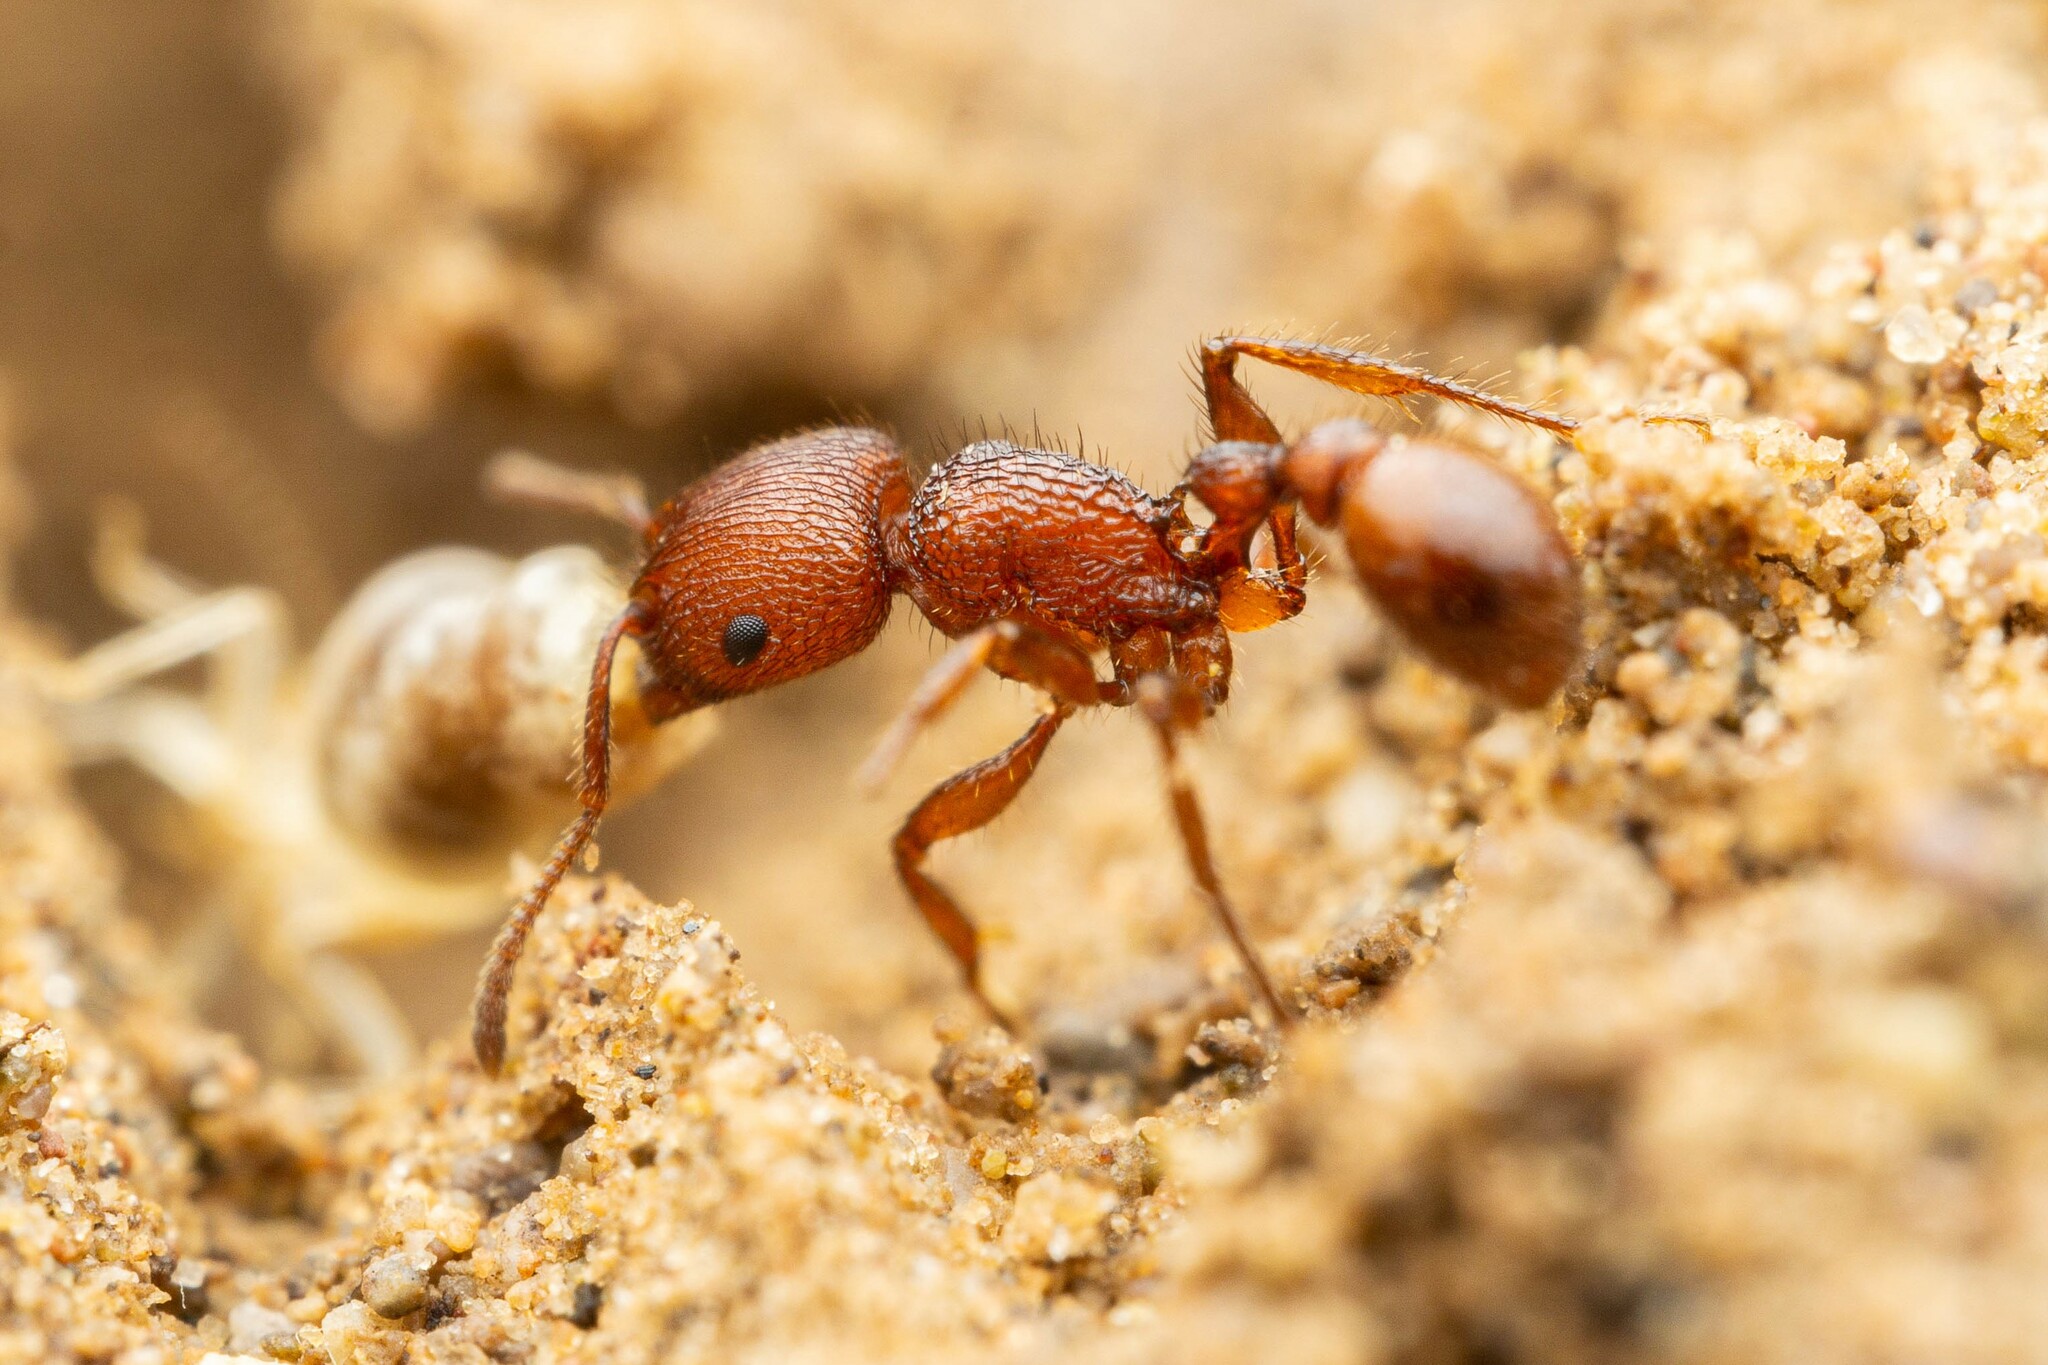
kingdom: Animalia
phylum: Arthropoda
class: Insecta
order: Hymenoptera
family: Formicidae
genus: Pogonomyrmex
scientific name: Pogonomyrmex imberbiculus
